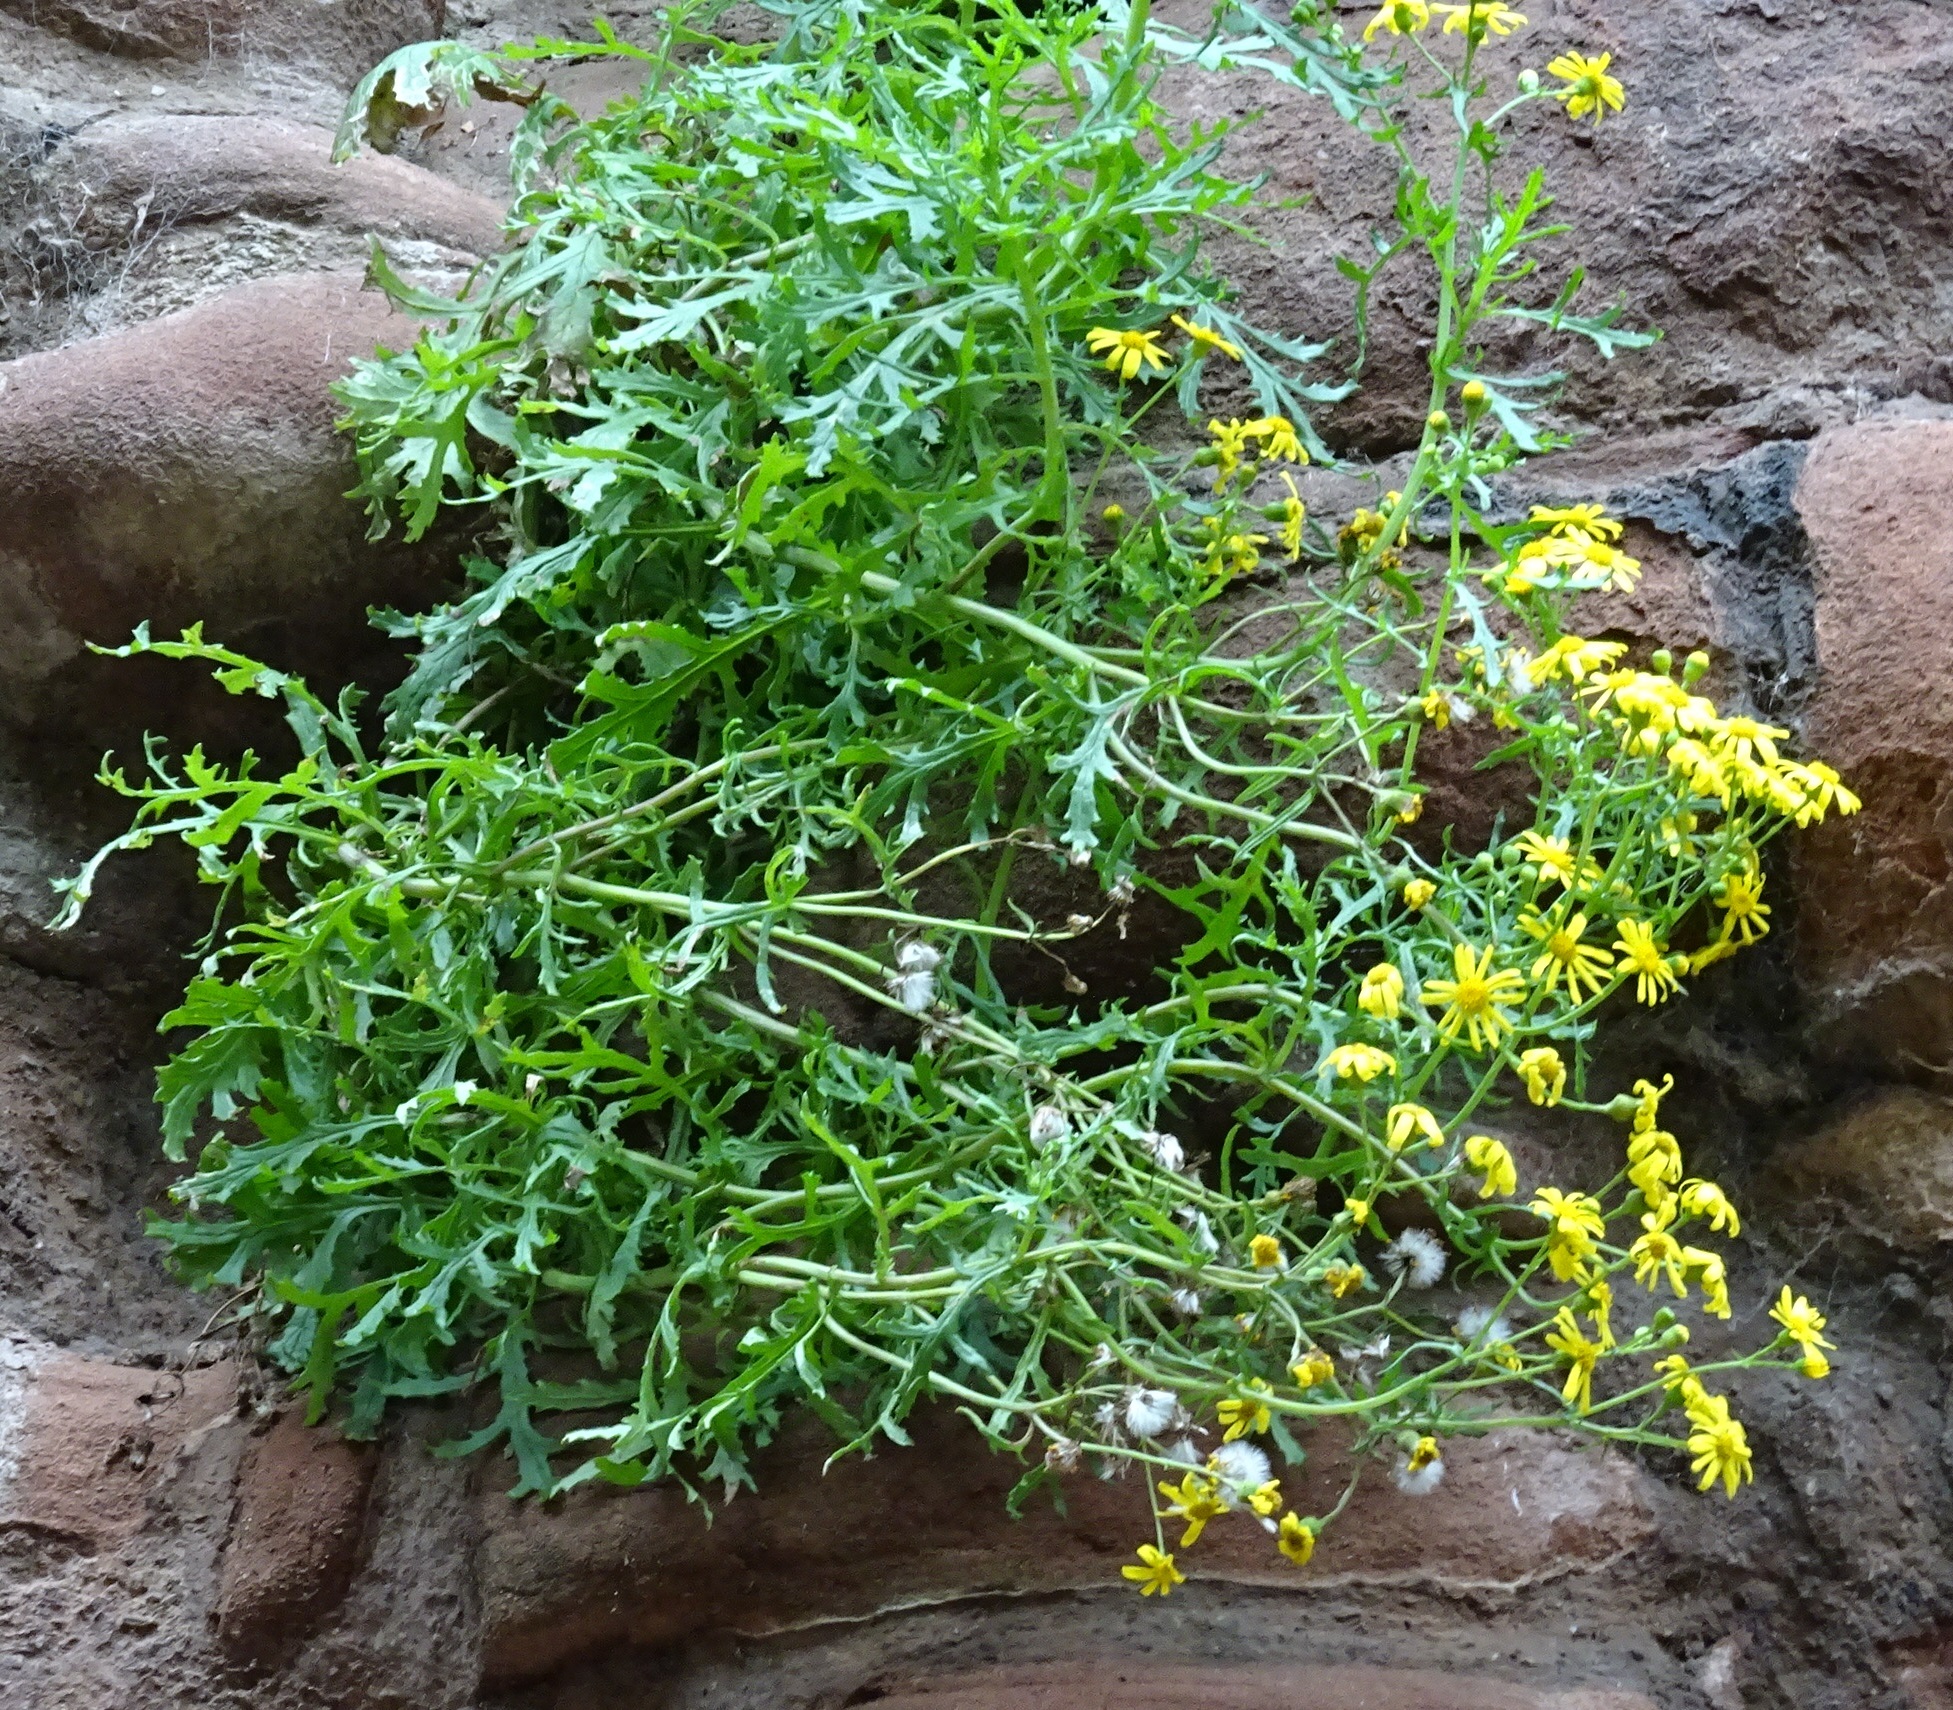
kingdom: Plantae
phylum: Tracheophyta
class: Magnoliopsida
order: Asterales
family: Asteraceae
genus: Senecio
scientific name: Senecio squalidus
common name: Oxford ragwort
